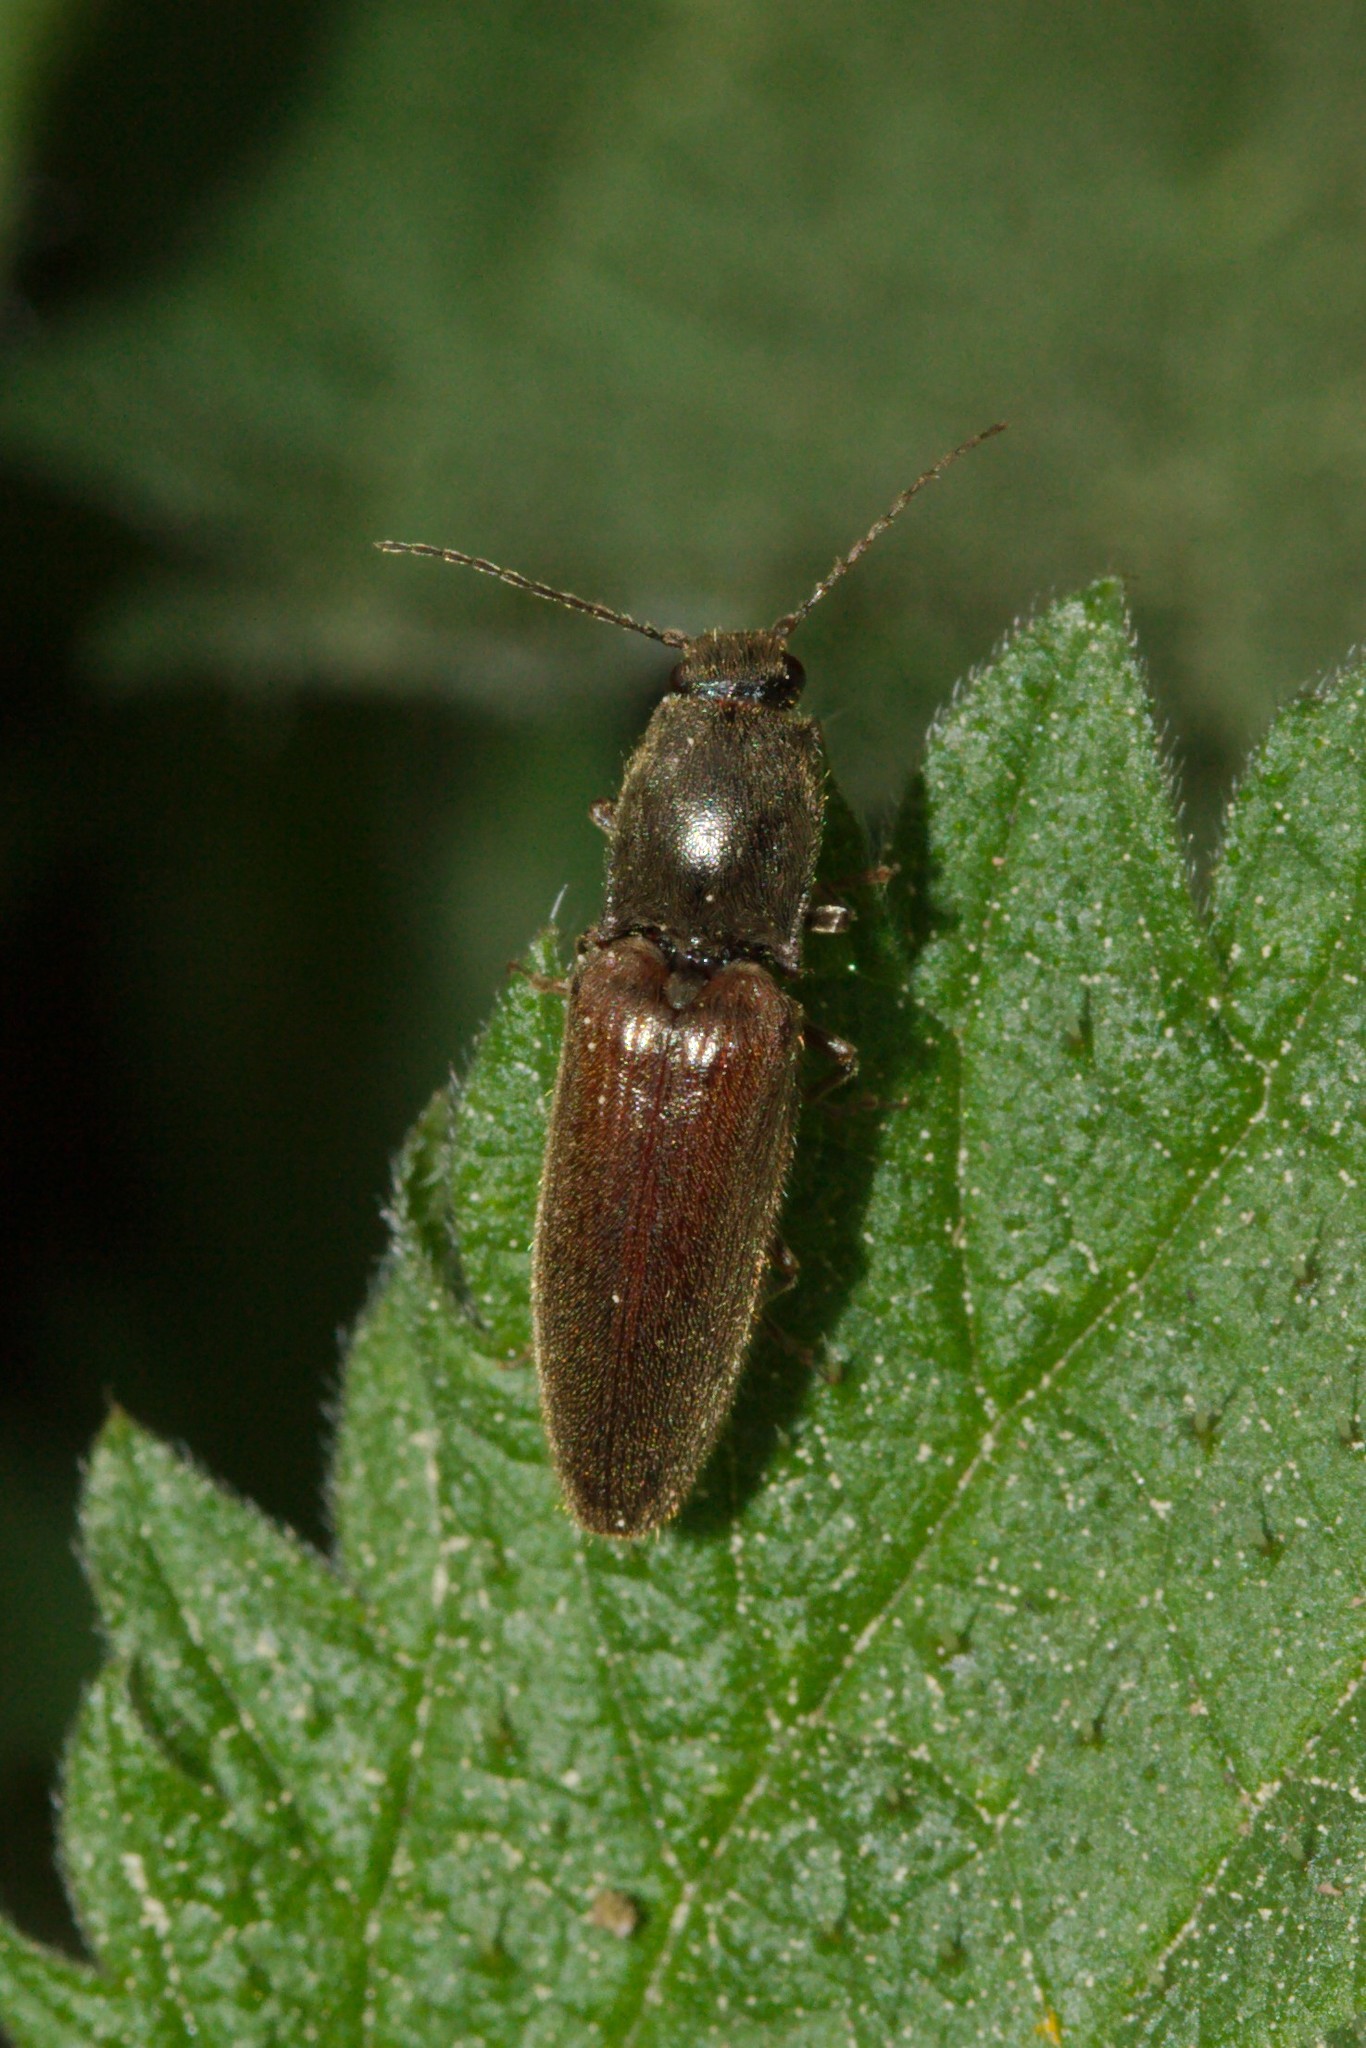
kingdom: Animalia
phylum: Arthropoda
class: Insecta
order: Coleoptera
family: Elateridae
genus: Athous
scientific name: Athous haemorrhoidalis
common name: Red-brown click beetle
